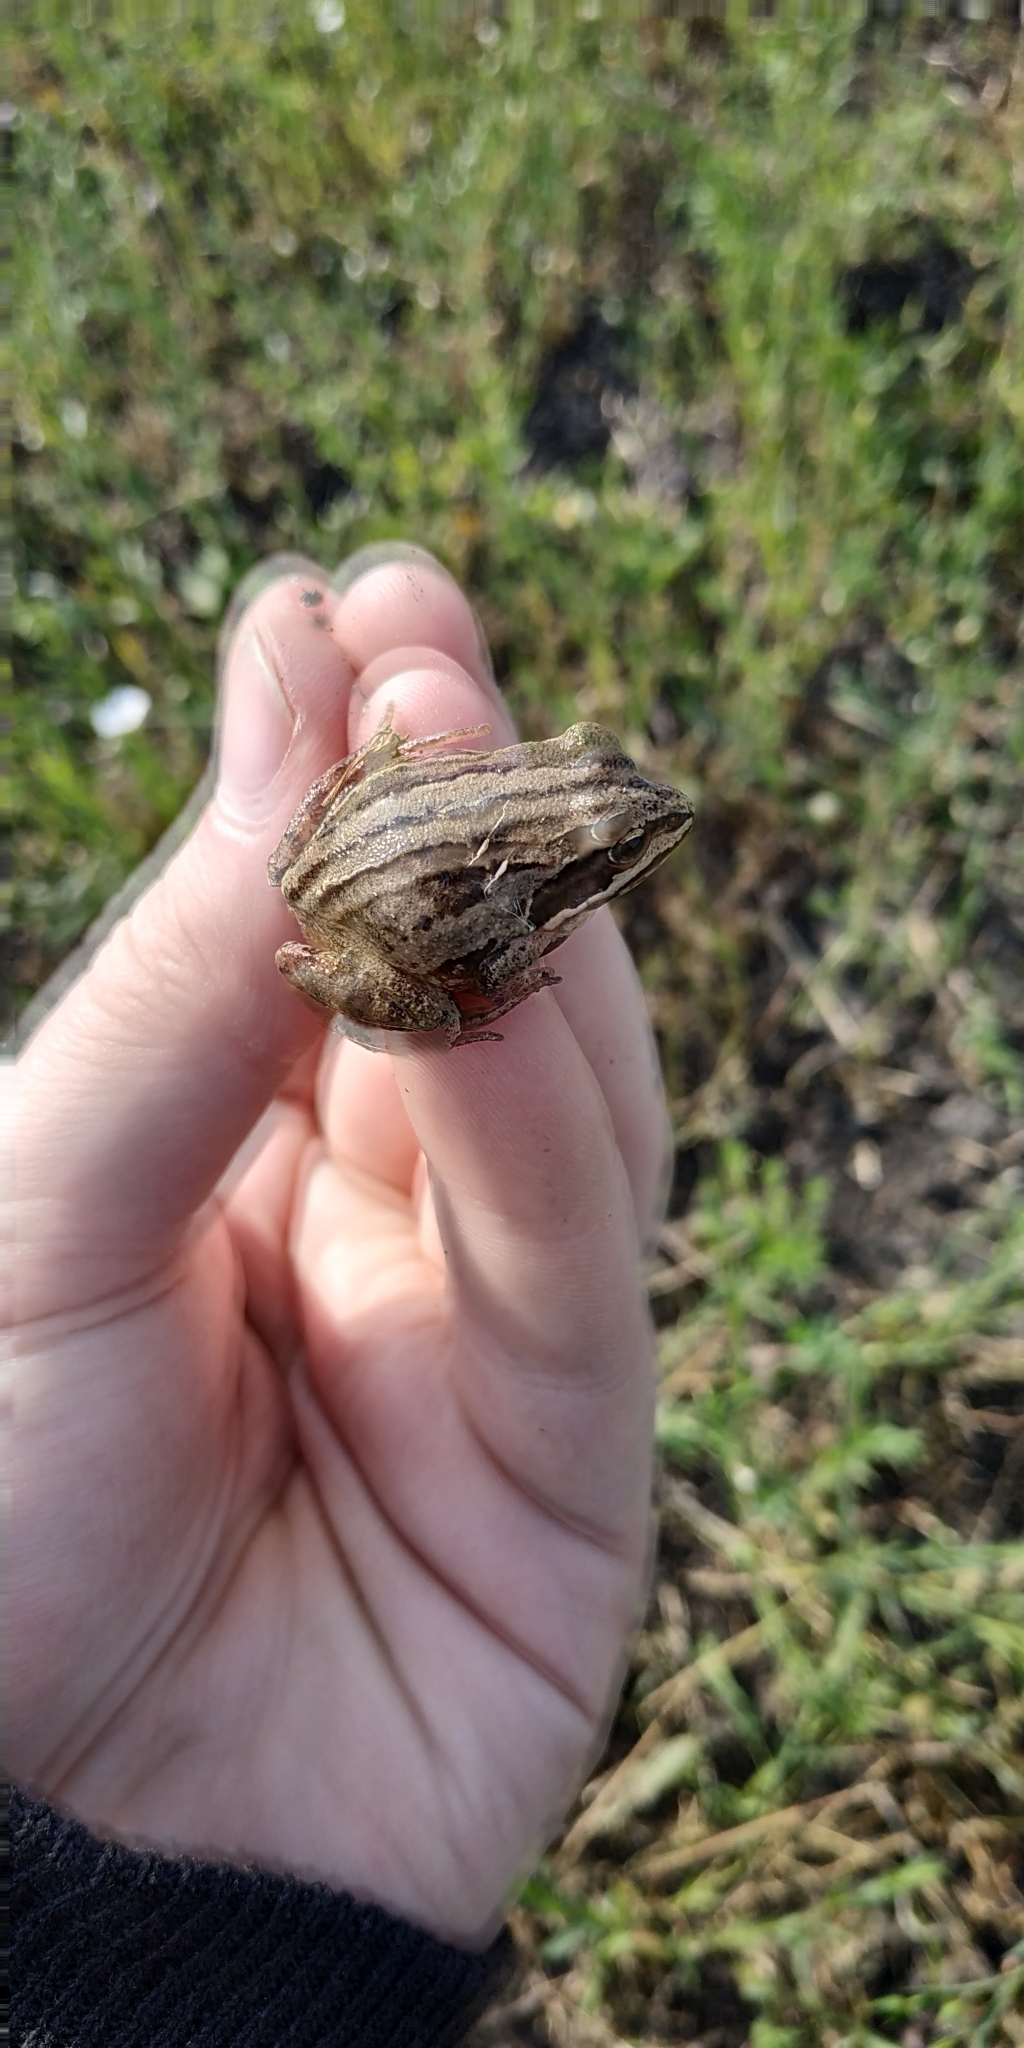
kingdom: Animalia
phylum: Chordata
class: Amphibia
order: Anura
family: Ranidae
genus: Rana
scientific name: Rana arvalis
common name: Moor frog
